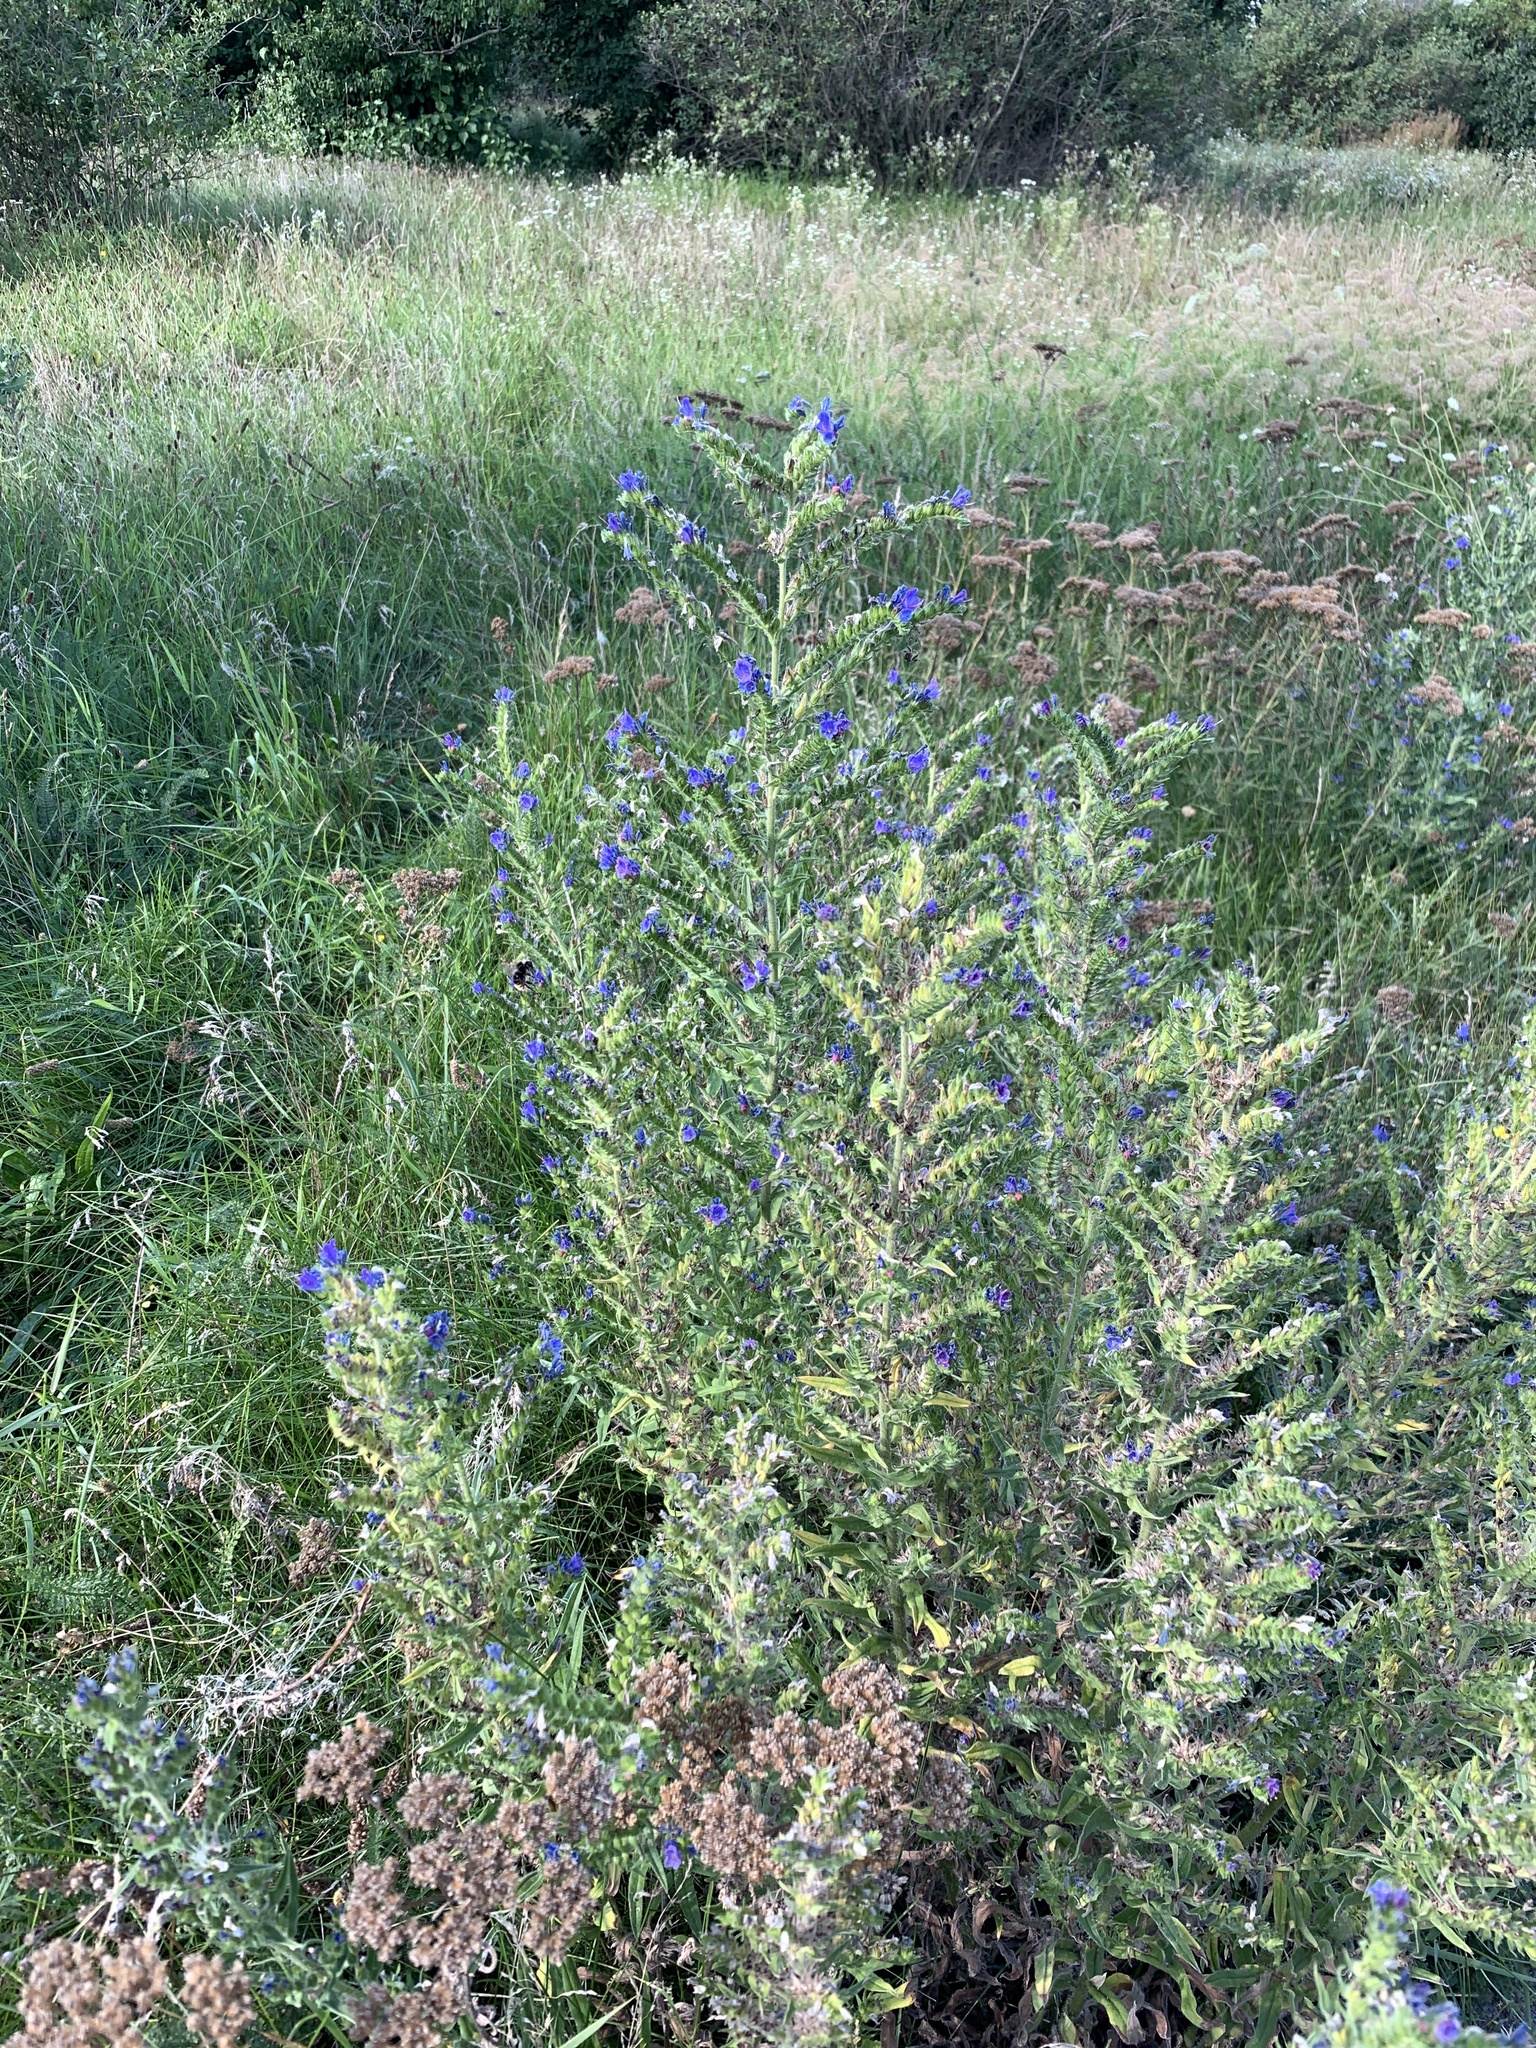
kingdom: Plantae
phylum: Tracheophyta
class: Magnoliopsida
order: Boraginales
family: Boraginaceae
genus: Echium
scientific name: Echium vulgare
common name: Common viper's bugloss
